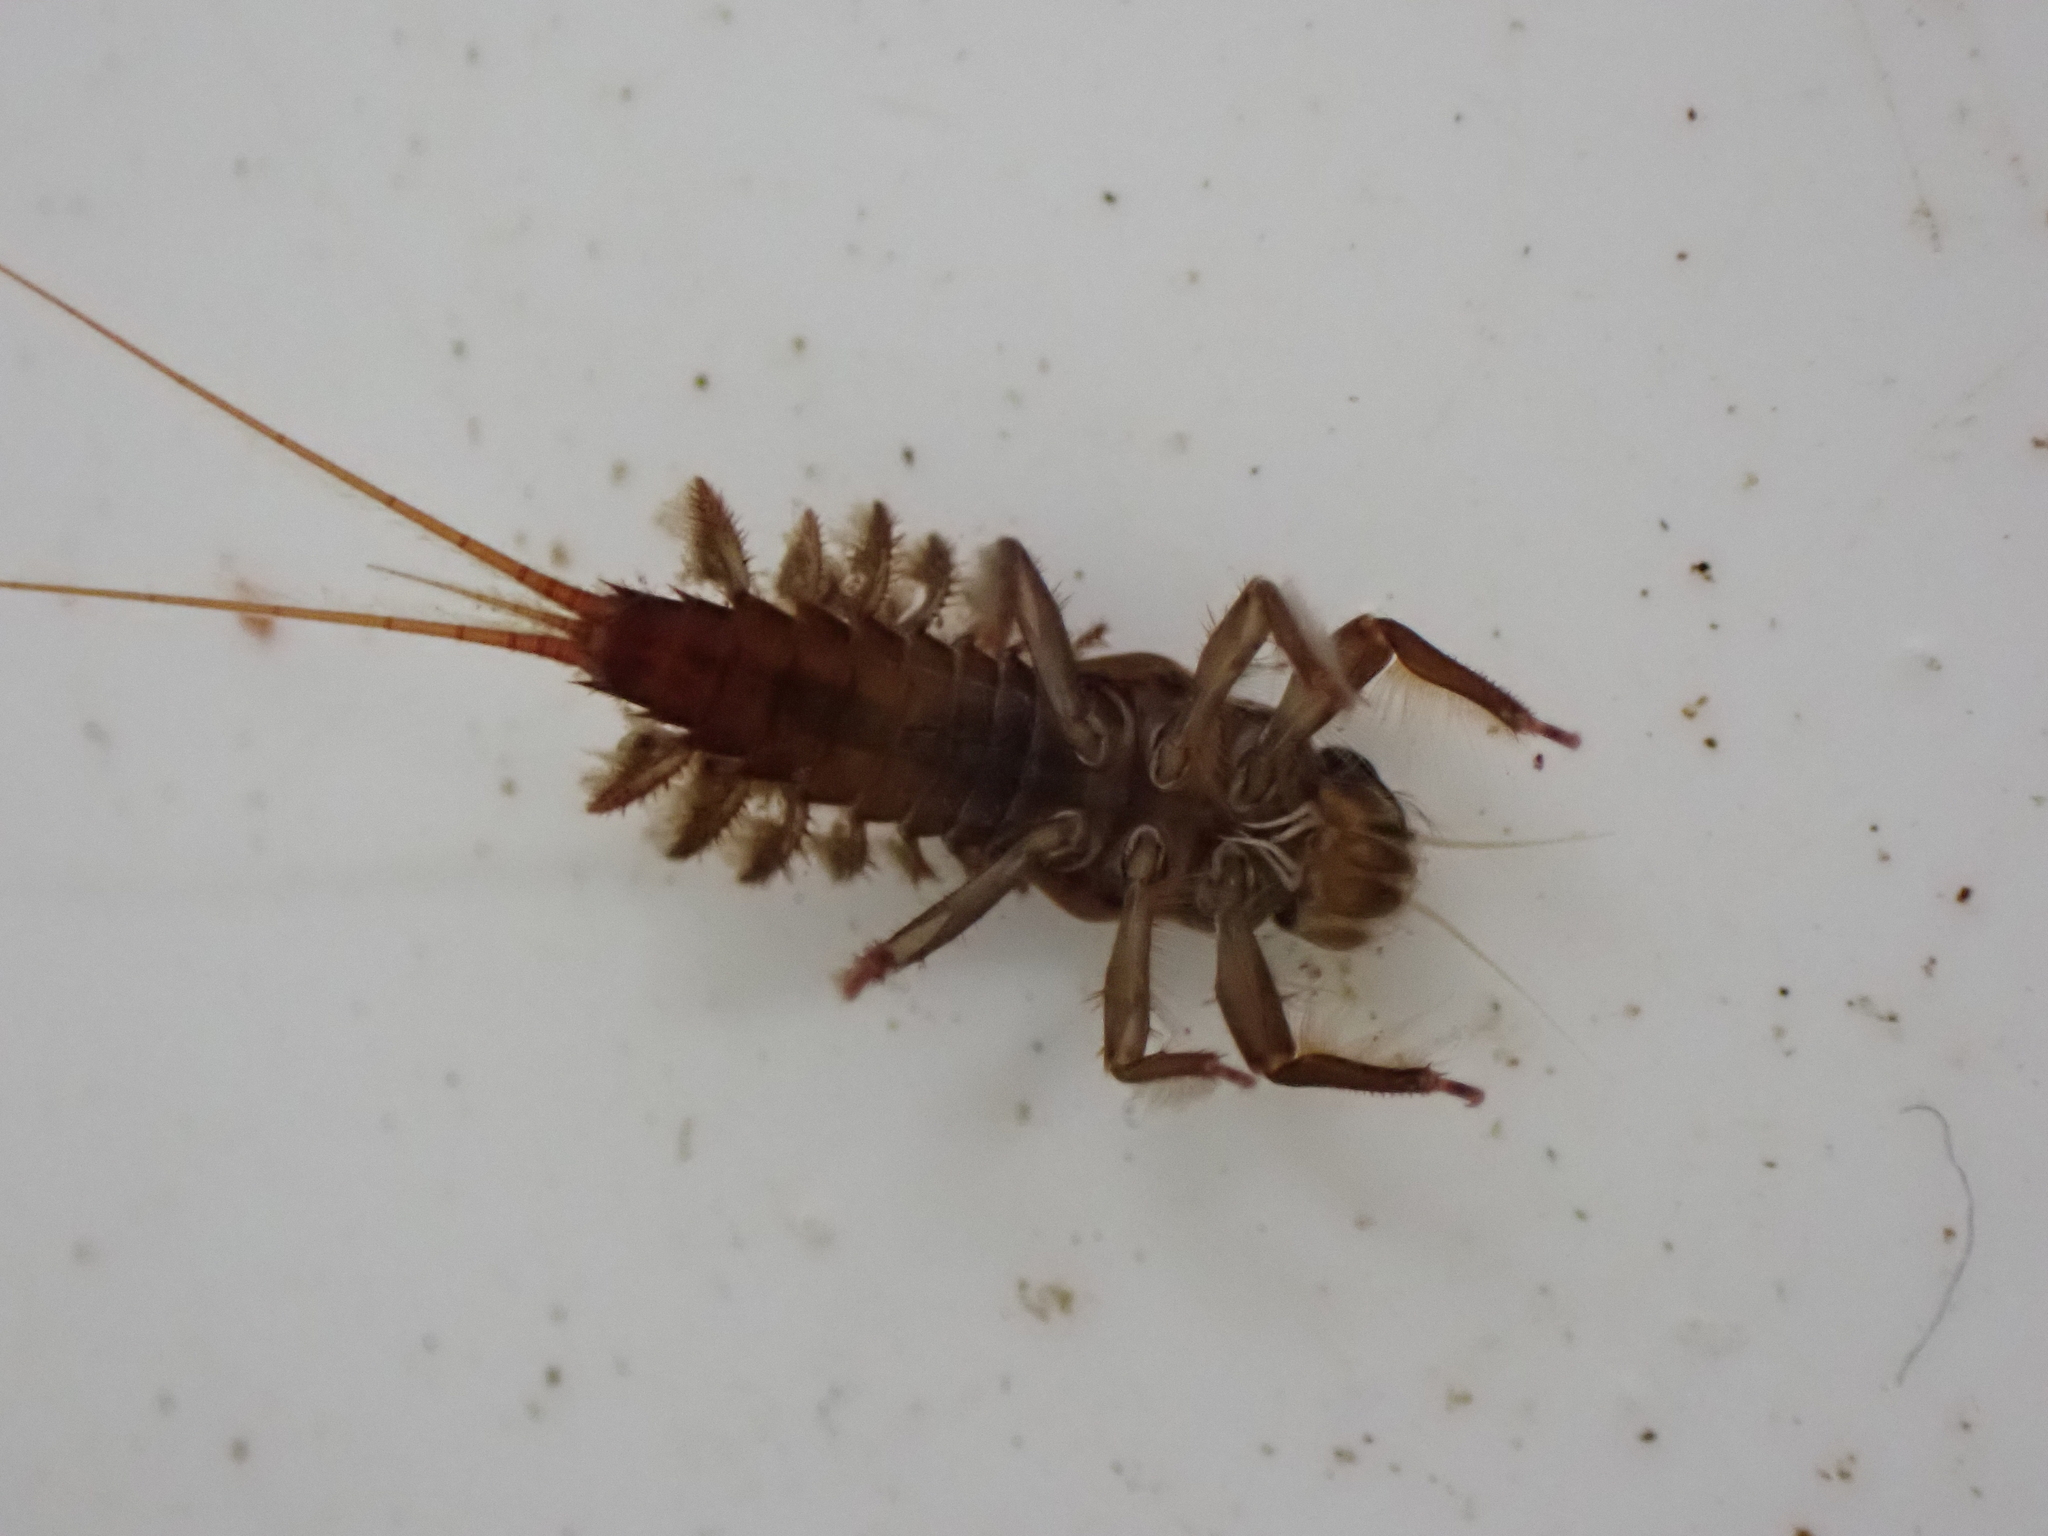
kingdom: Animalia
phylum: Arthropoda
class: Insecta
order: Ephemeroptera
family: Coloburiscidae
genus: Coloburiscus
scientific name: Coloburiscus humeralis
